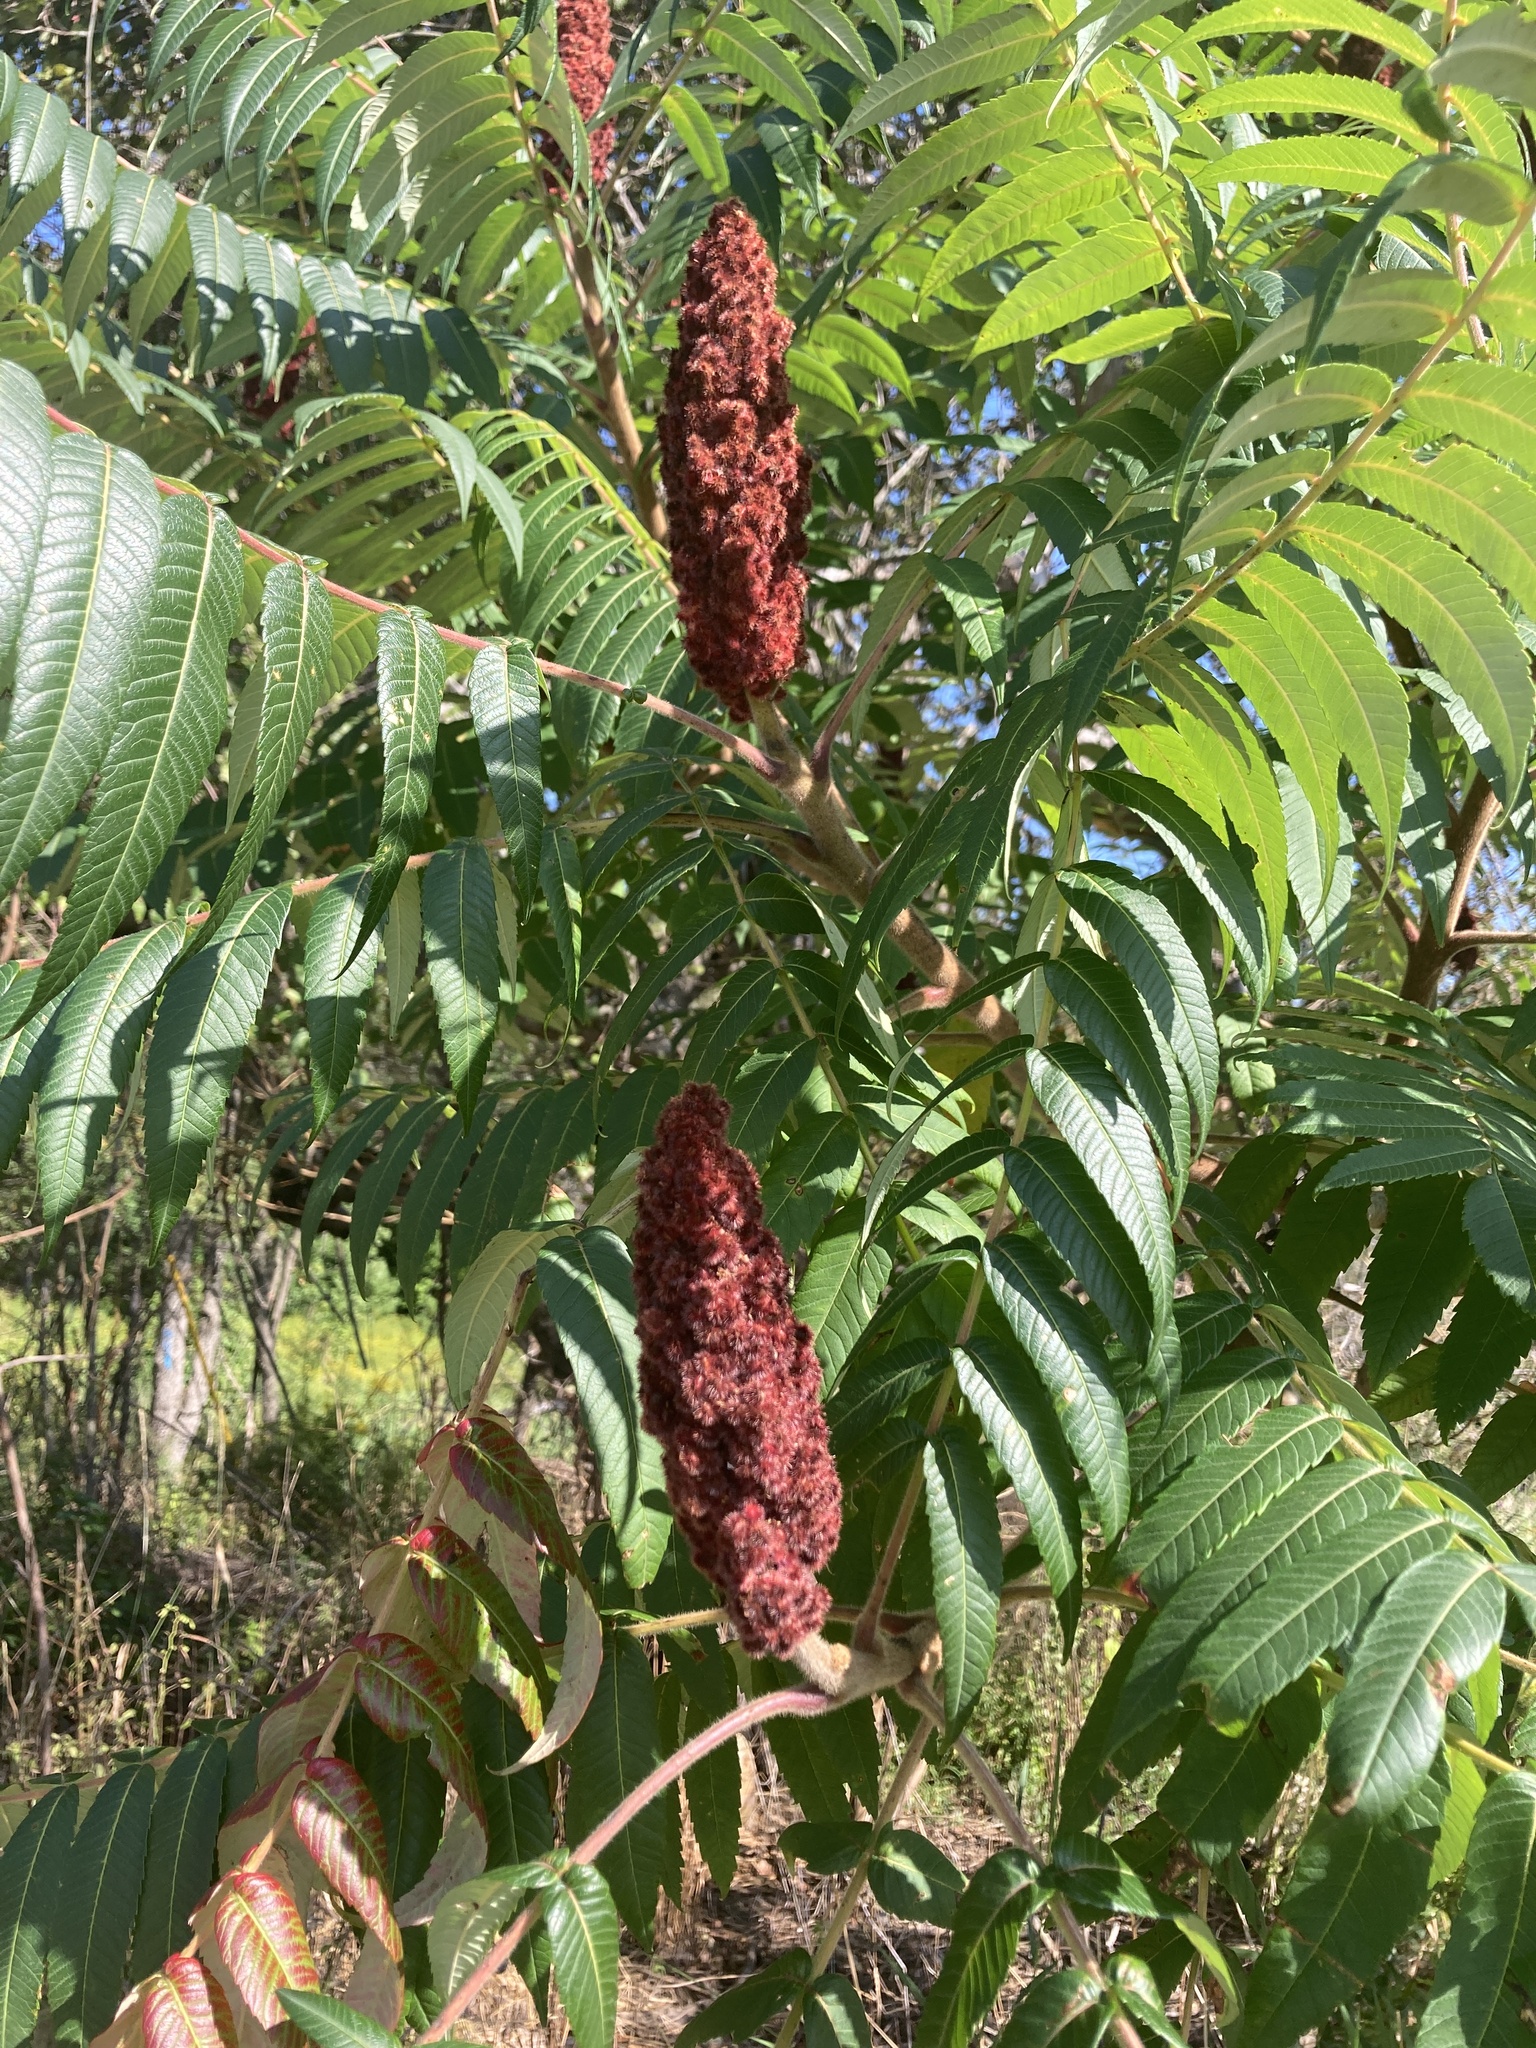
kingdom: Plantae
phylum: Tracheophyta
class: Magnoliopsida
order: Sapindales
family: Anacardiaceae
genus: Rhus
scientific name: Rhus typhina
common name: Staghorn sumac
